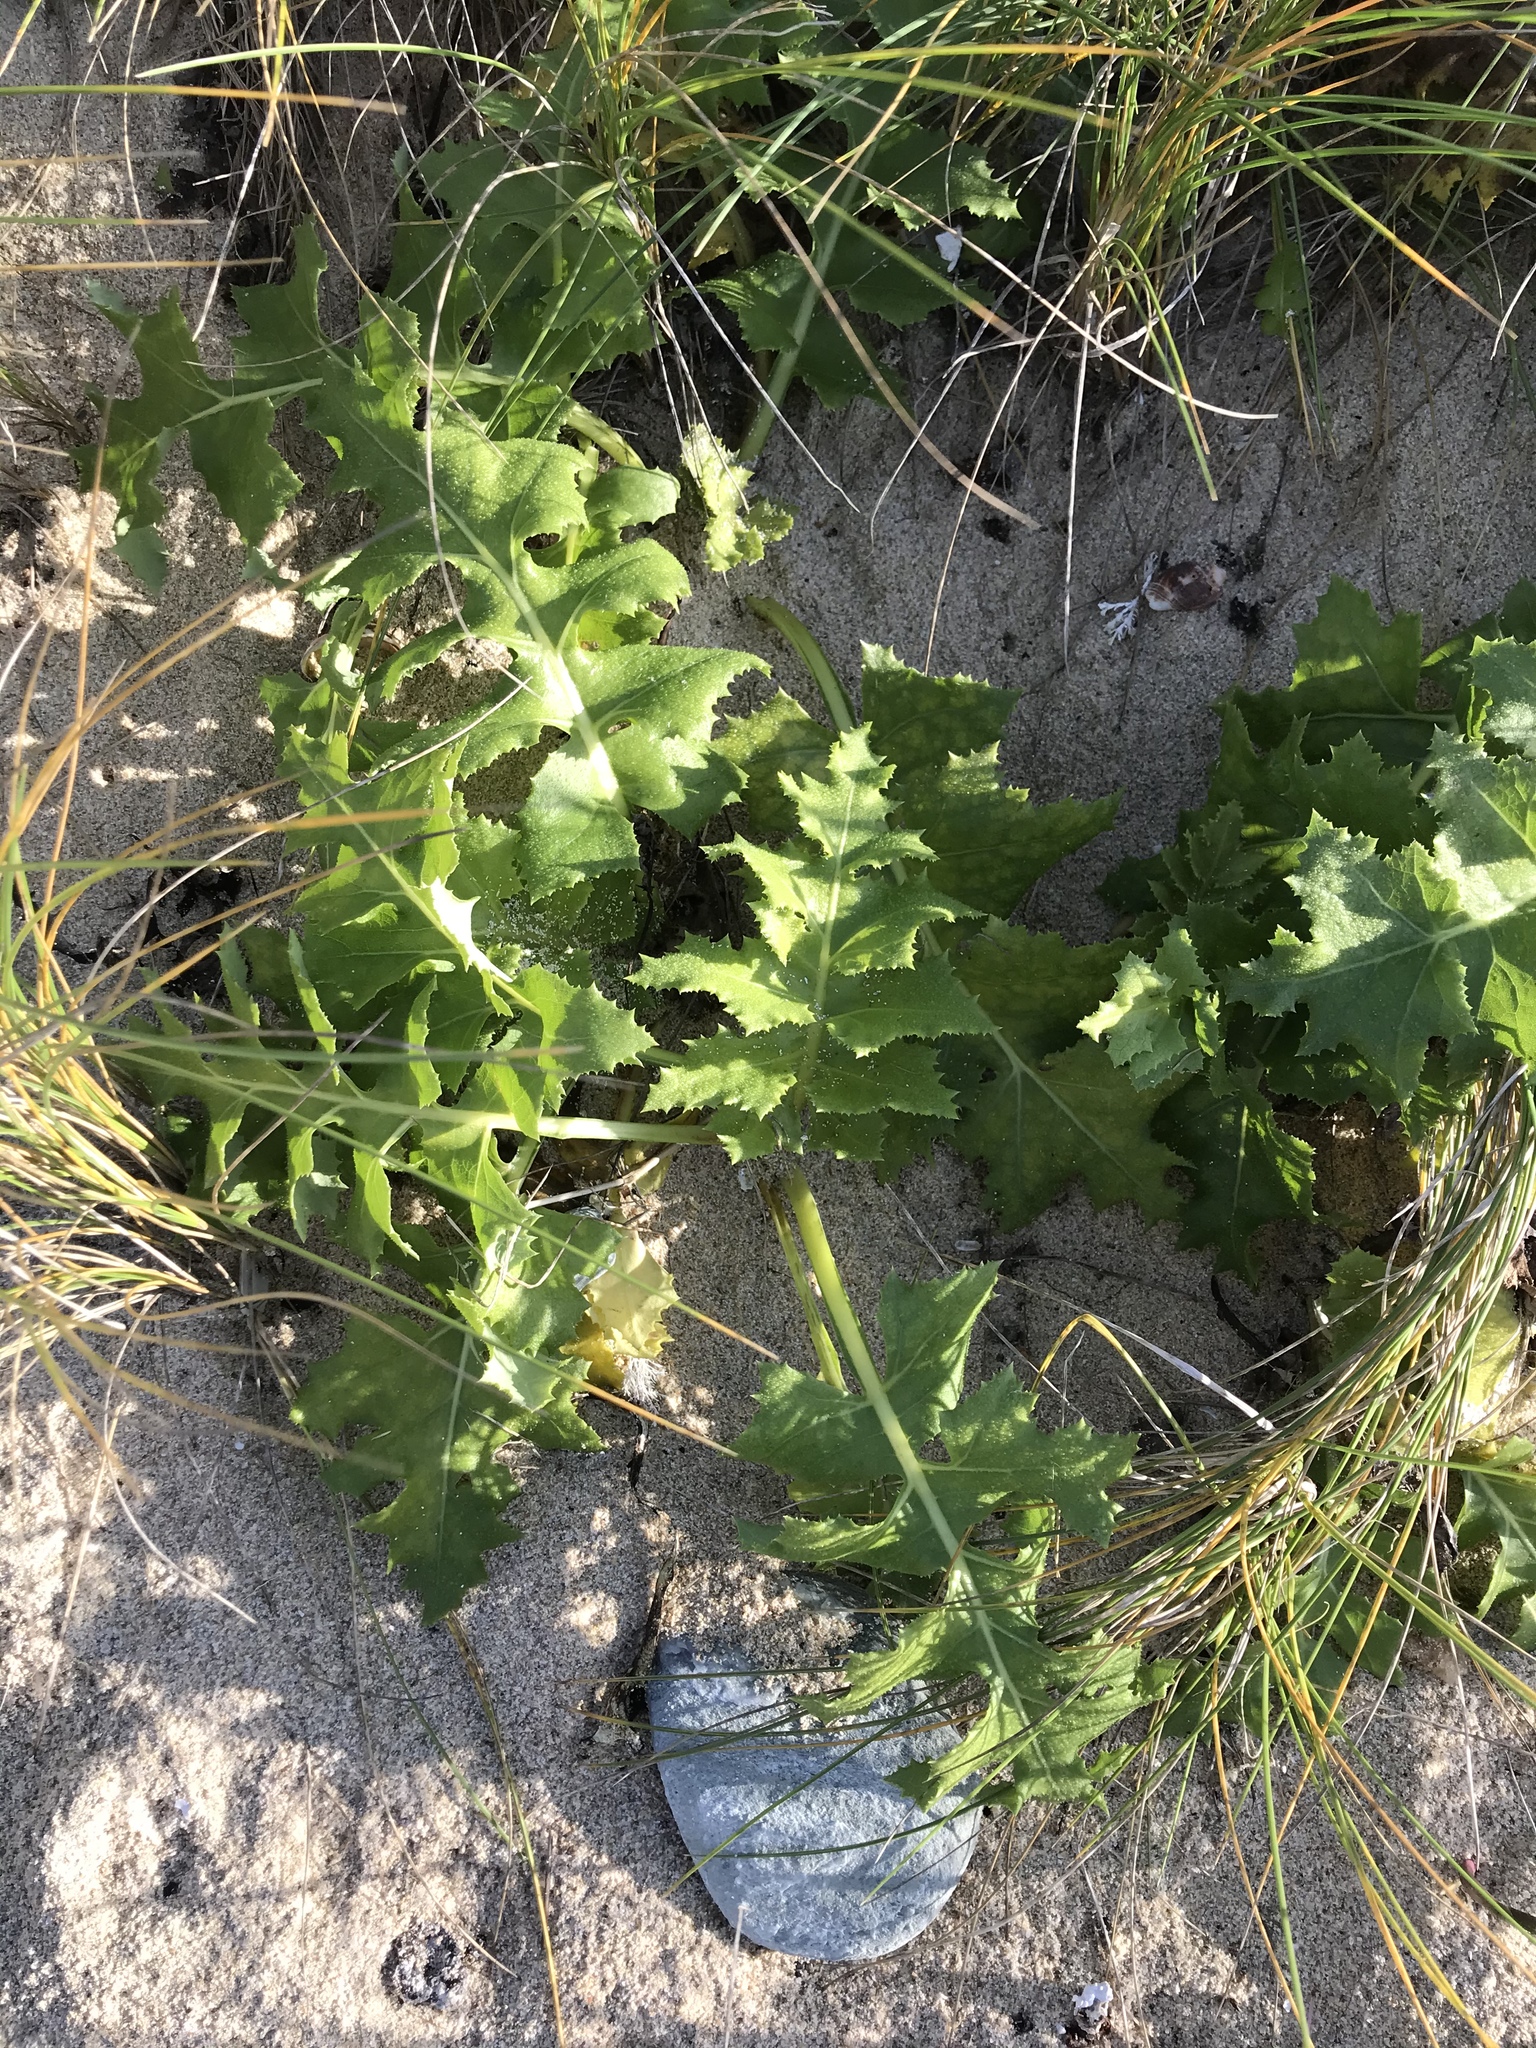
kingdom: Plantae
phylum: Tracheophyta
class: Magnoliopsida
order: Asterales
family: Asteraceae
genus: Sonchus
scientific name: Sonchus grandifolius
